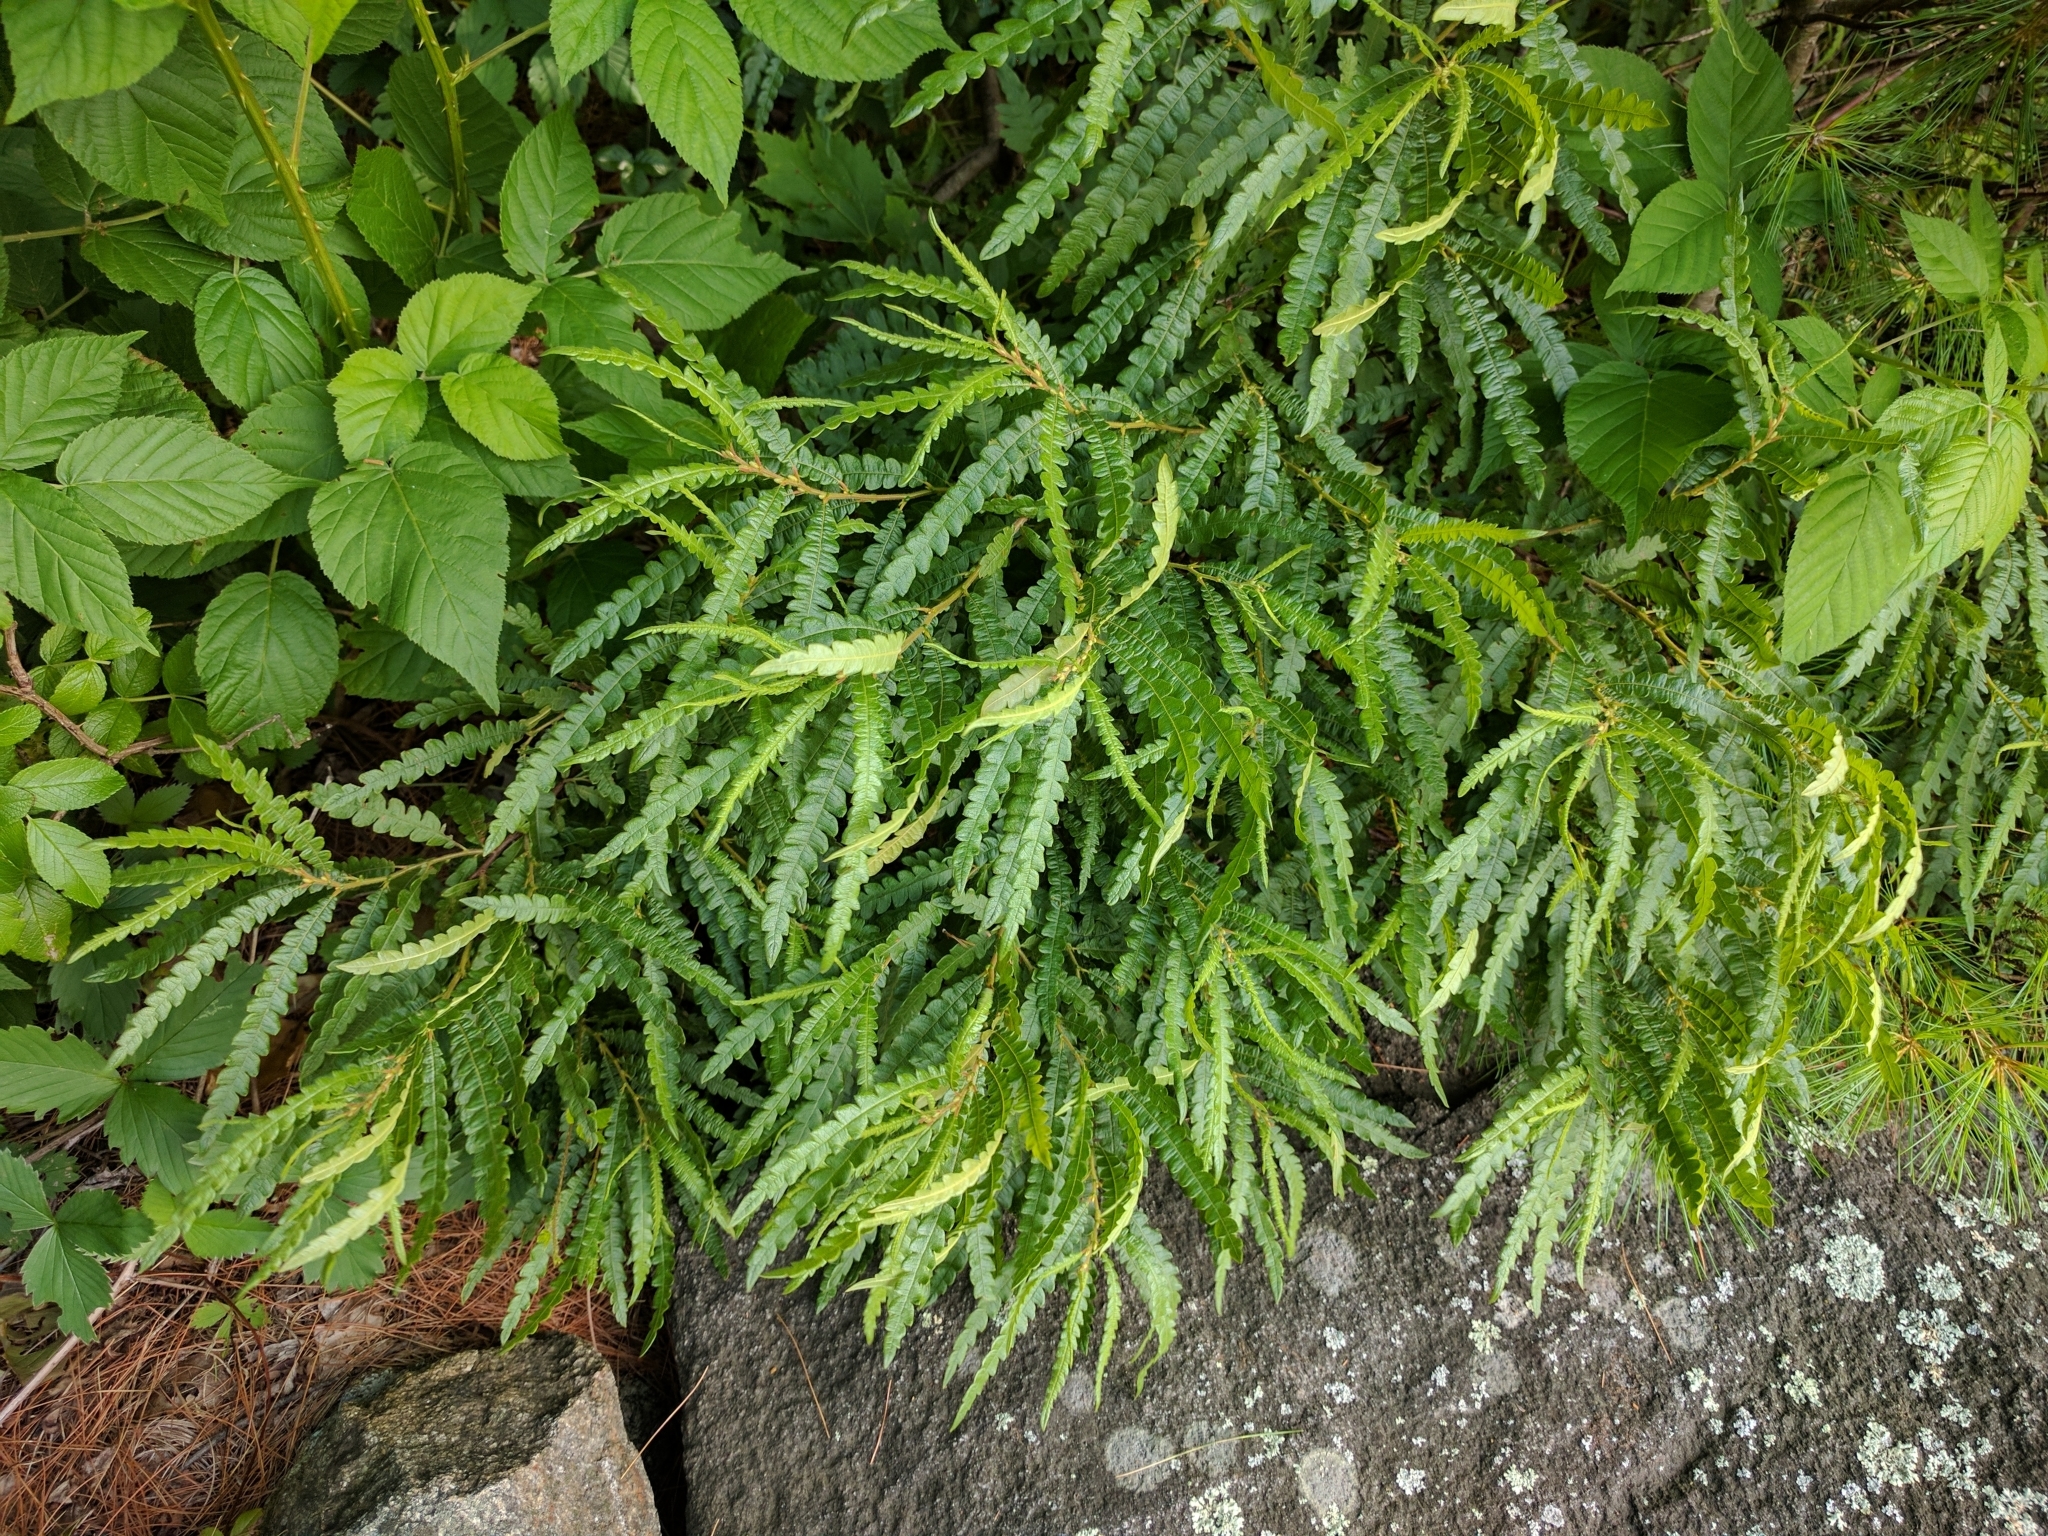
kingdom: Plantae
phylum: Tracheophyta
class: Magnoliopsida
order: Fagales
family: Myricaceae
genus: Comptonia
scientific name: Comptonia peregrina
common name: Sweet-fern
